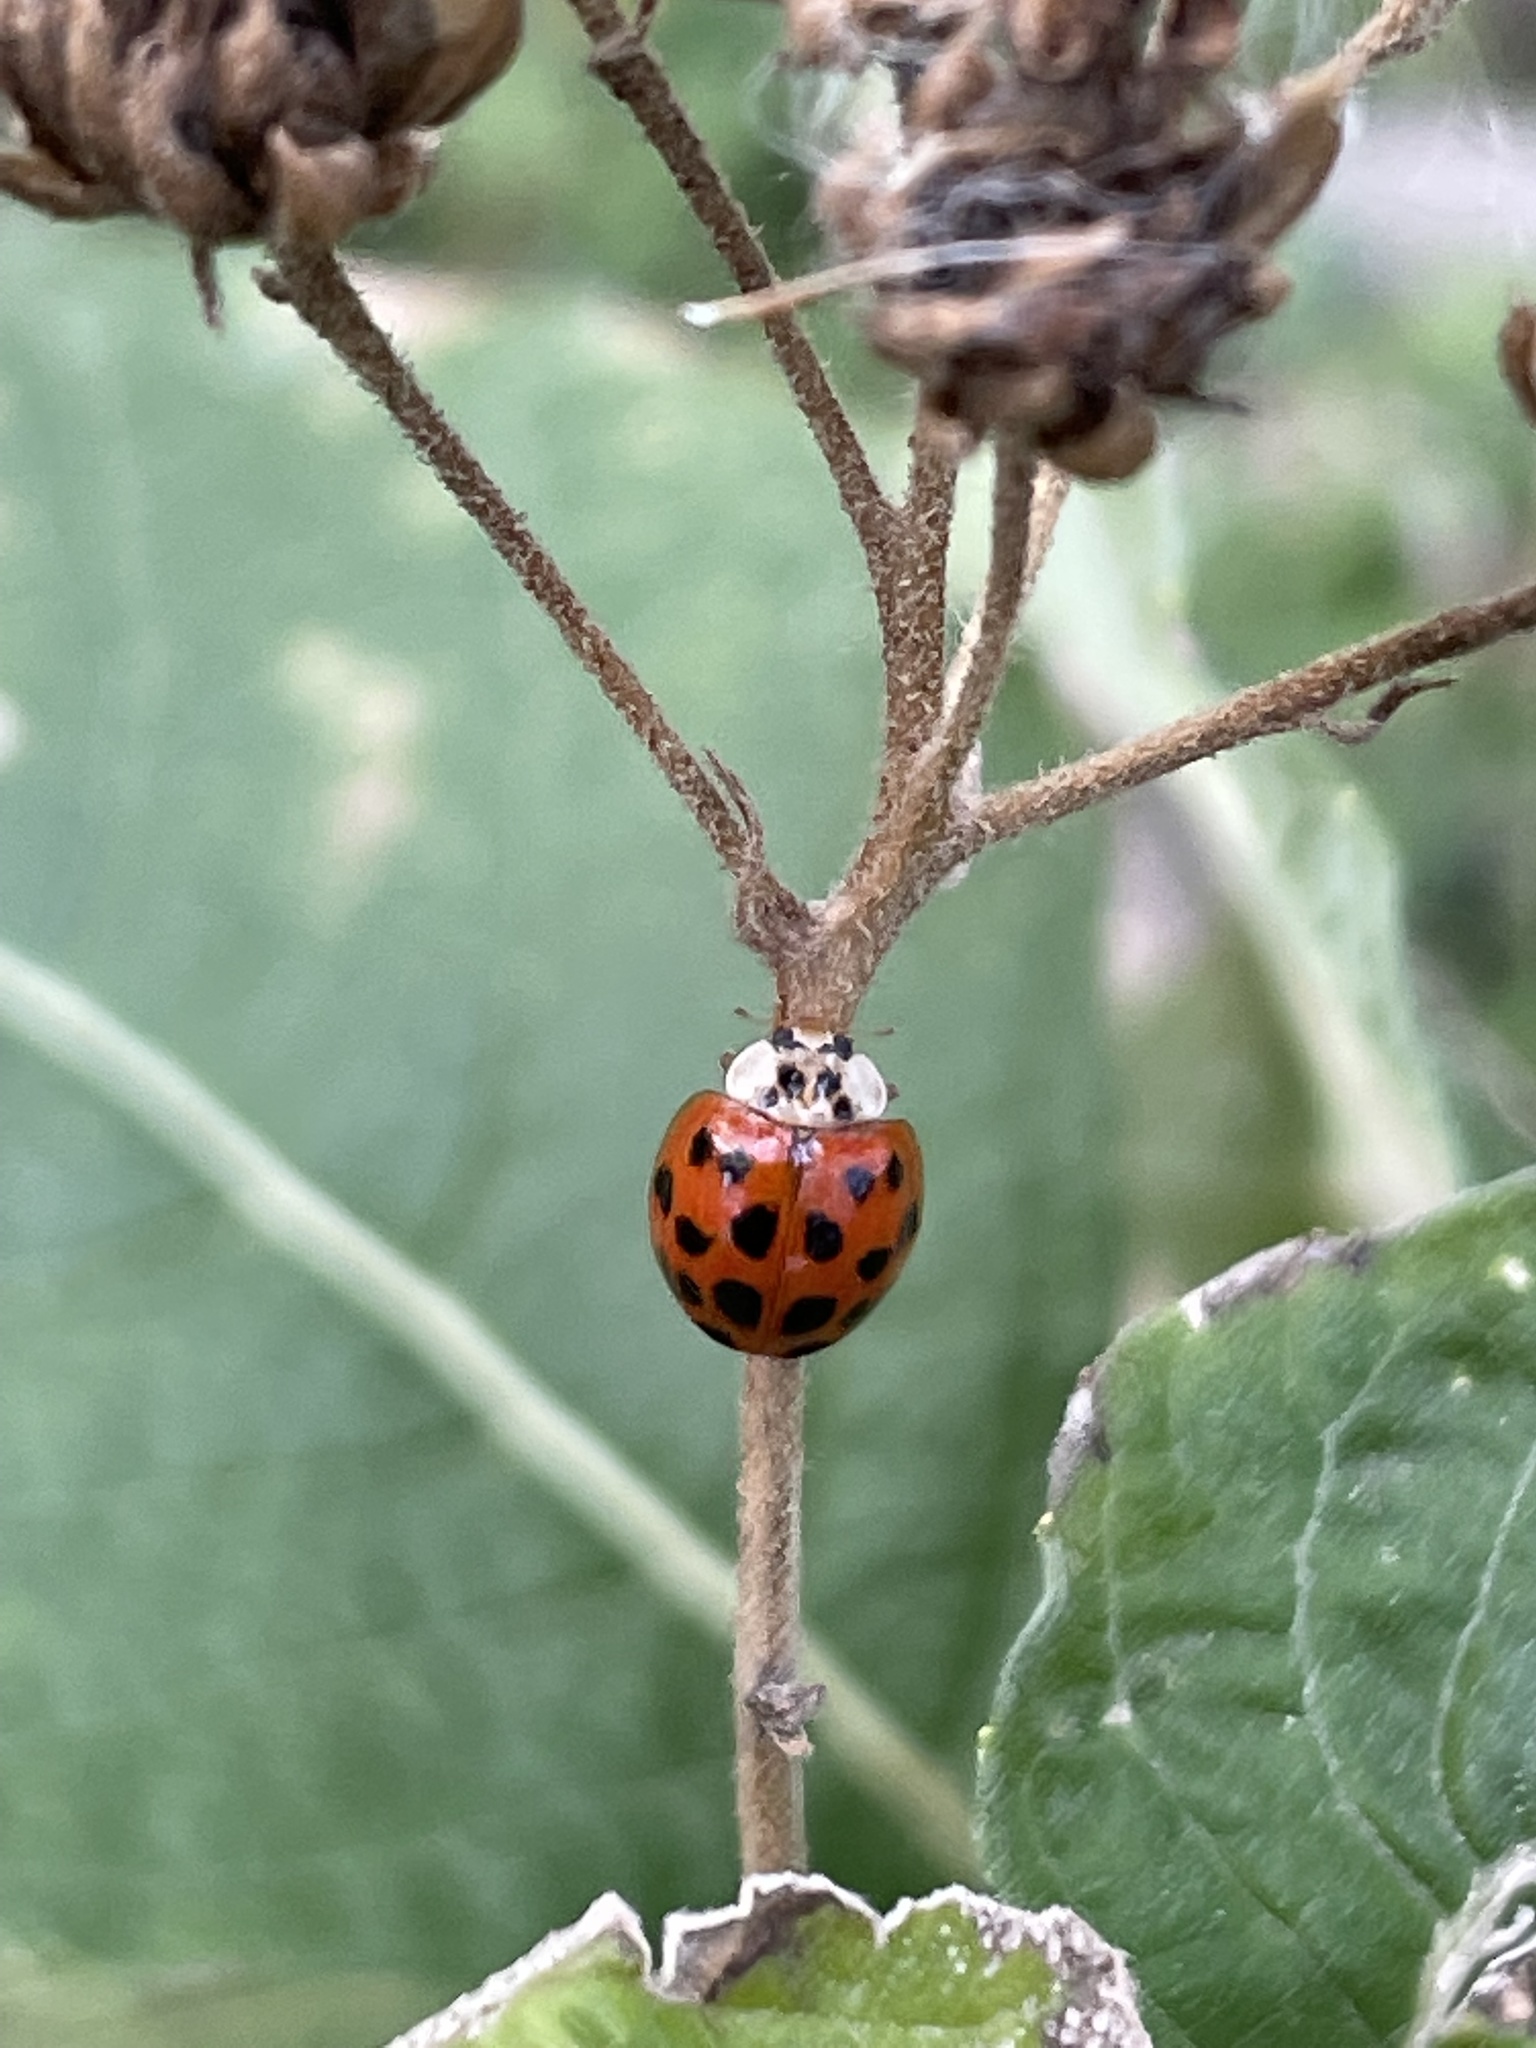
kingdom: Animalia
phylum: Arthropoda
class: Insecta
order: Coleoptera
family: Coccinellidae
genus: Harmonia
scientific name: Harmonia axyridis
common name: Harlequin ladybird
